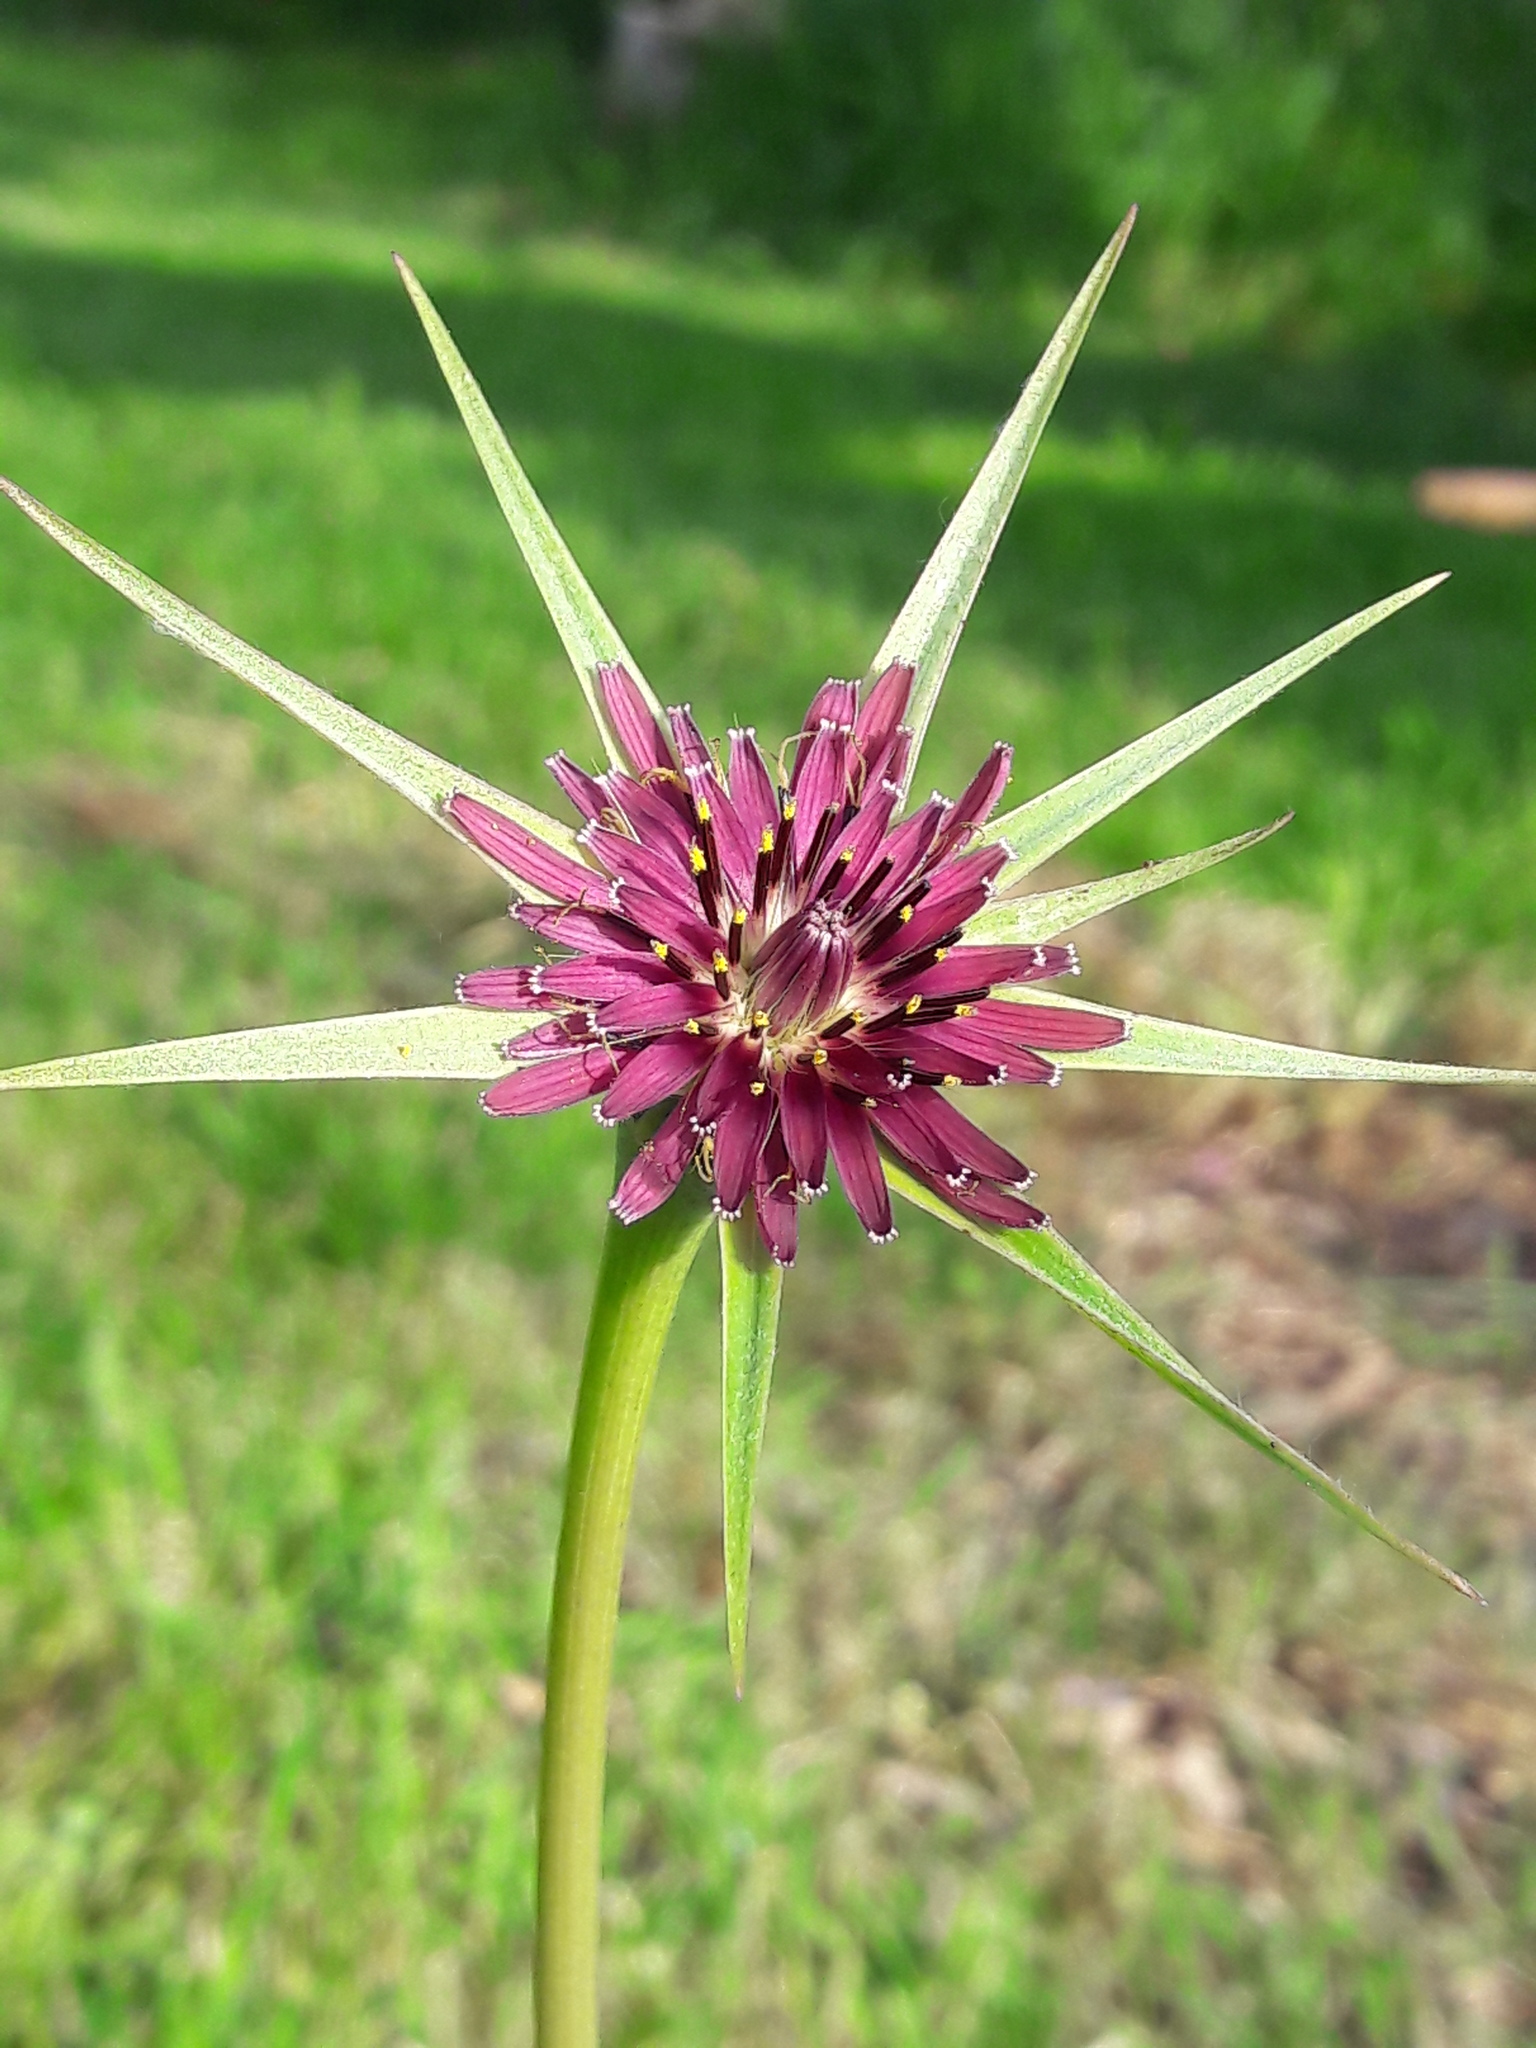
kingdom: Plantae
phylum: Tracheophyta
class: Magnoliopsida
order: Asterales
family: Asteraceae
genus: Tragopogon
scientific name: Tragopogon porrifolius
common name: Salsify
